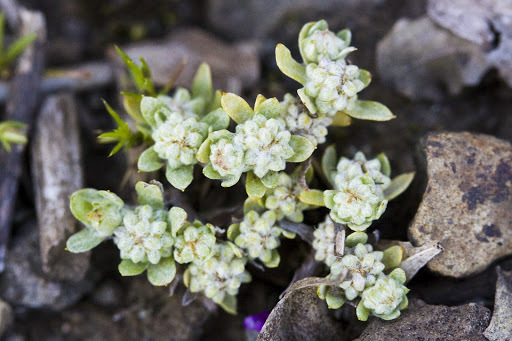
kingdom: Plantae
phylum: Tracheophyta
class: Magnoliopsida
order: Asterales
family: Asteraceae
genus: Psilocarphus
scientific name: Psilocarphus tenellus
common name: Slender woolly-marbles
